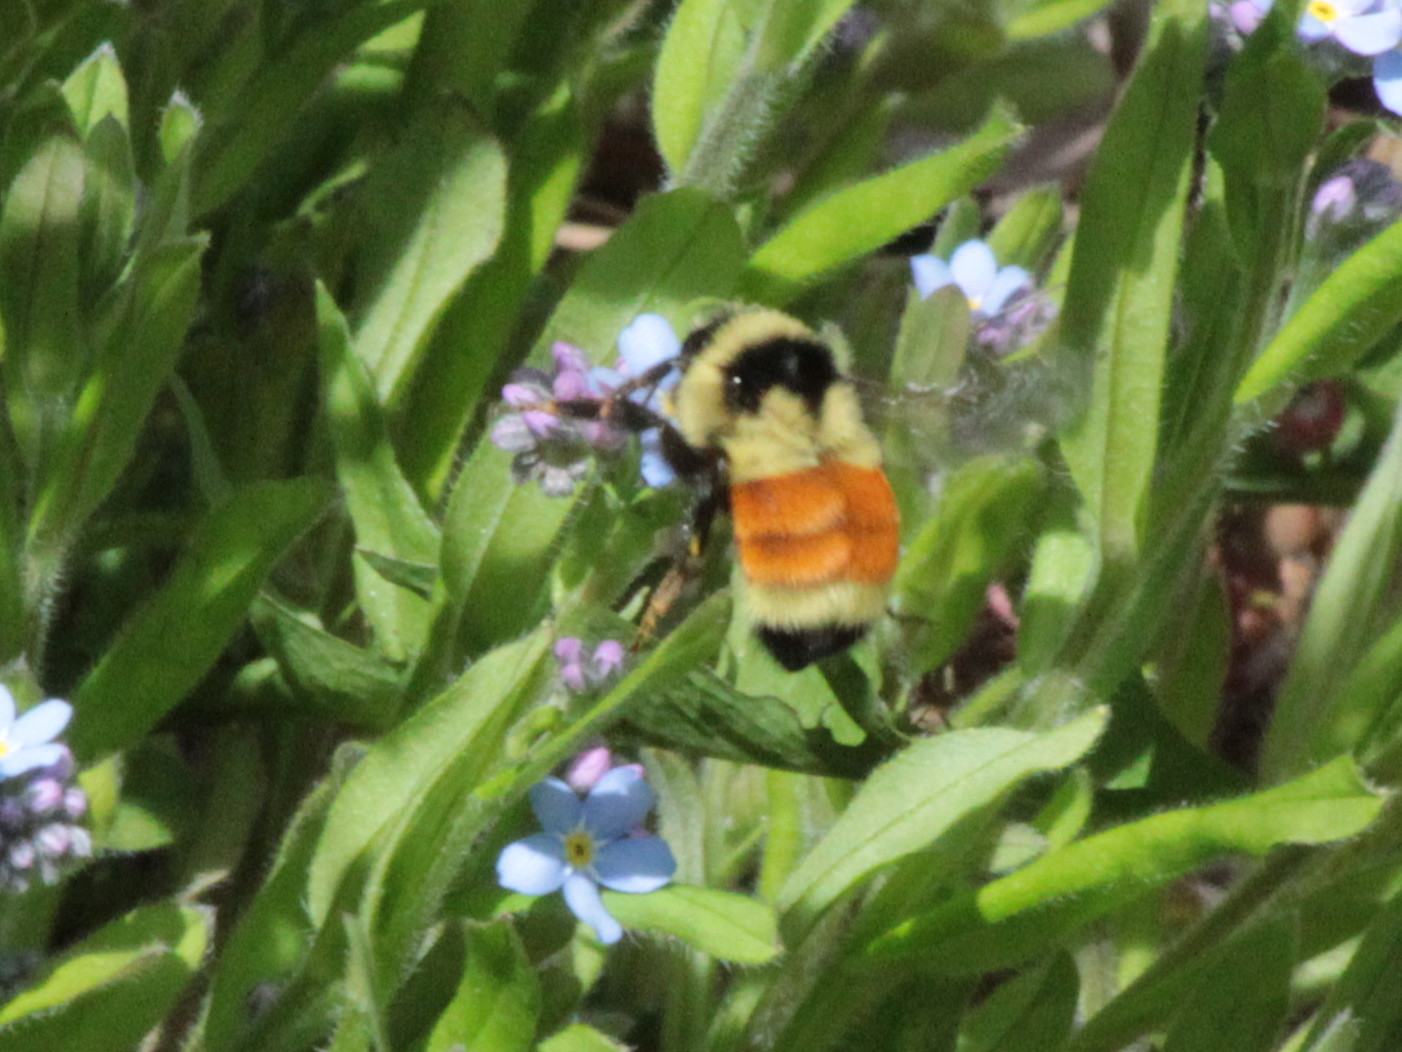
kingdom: Animalia
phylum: Arthropoda
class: Insecta
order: Hymenoptera
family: Apidae
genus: Bombus
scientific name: Bombus ternarius
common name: Tri-colored bumble bee
